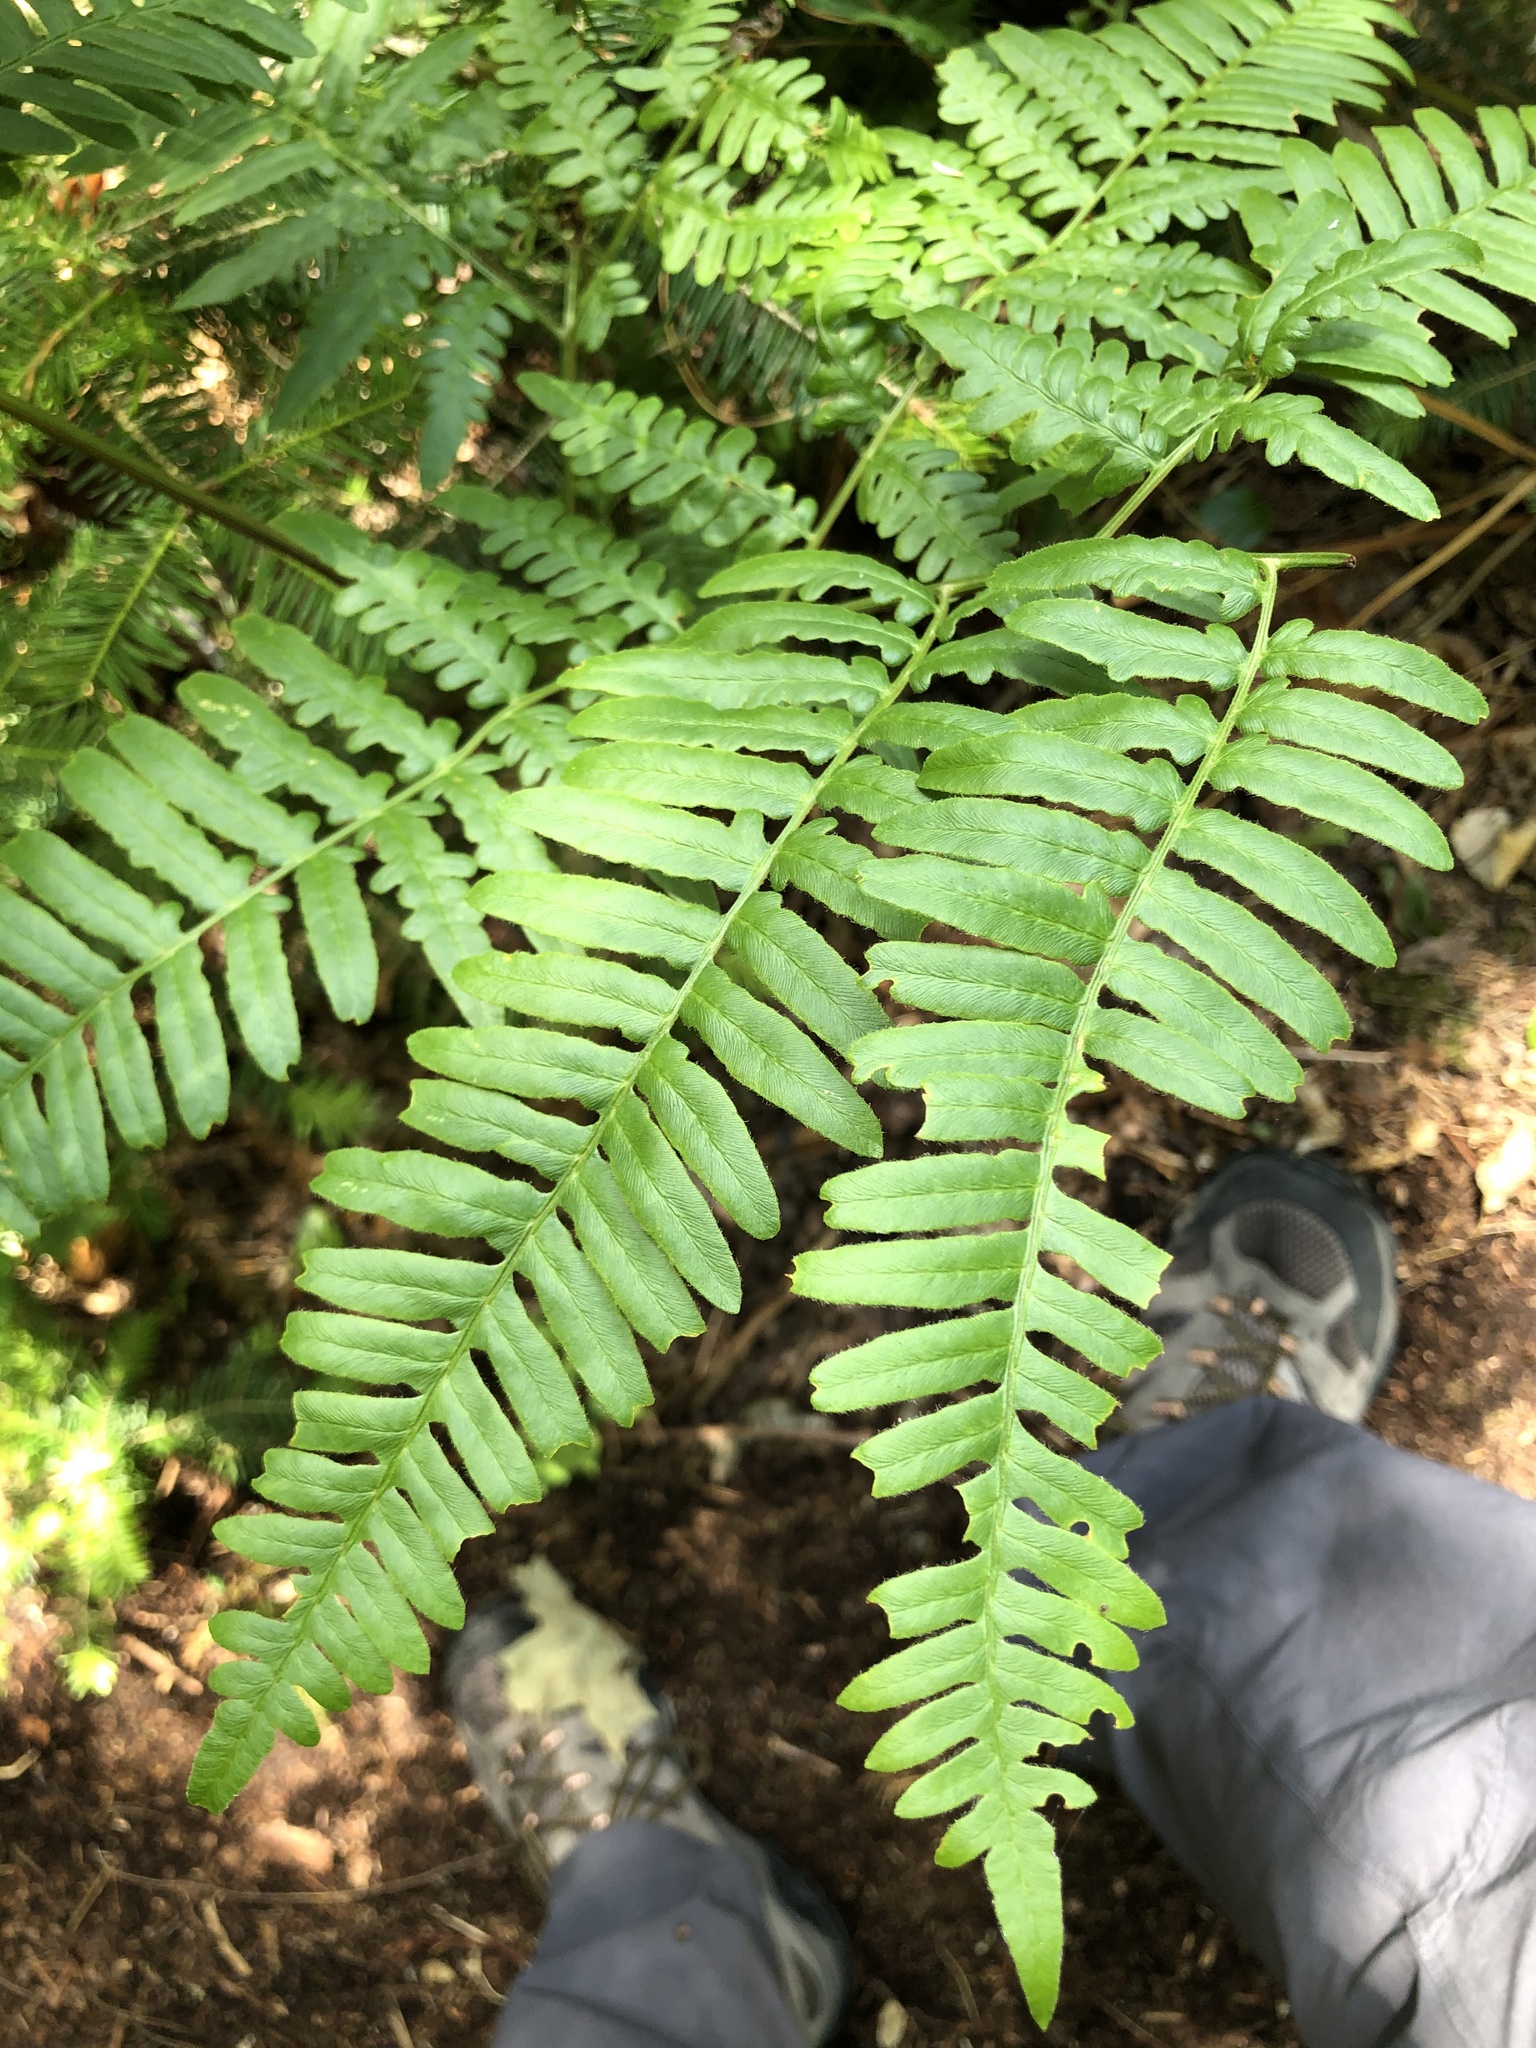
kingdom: Plantae
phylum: Tracheophyta
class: Polypodiopsida
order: Polypodiales
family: Dennstaedtiaceae
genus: Pteridium
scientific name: Pteridium aquilinum
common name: Bracken
